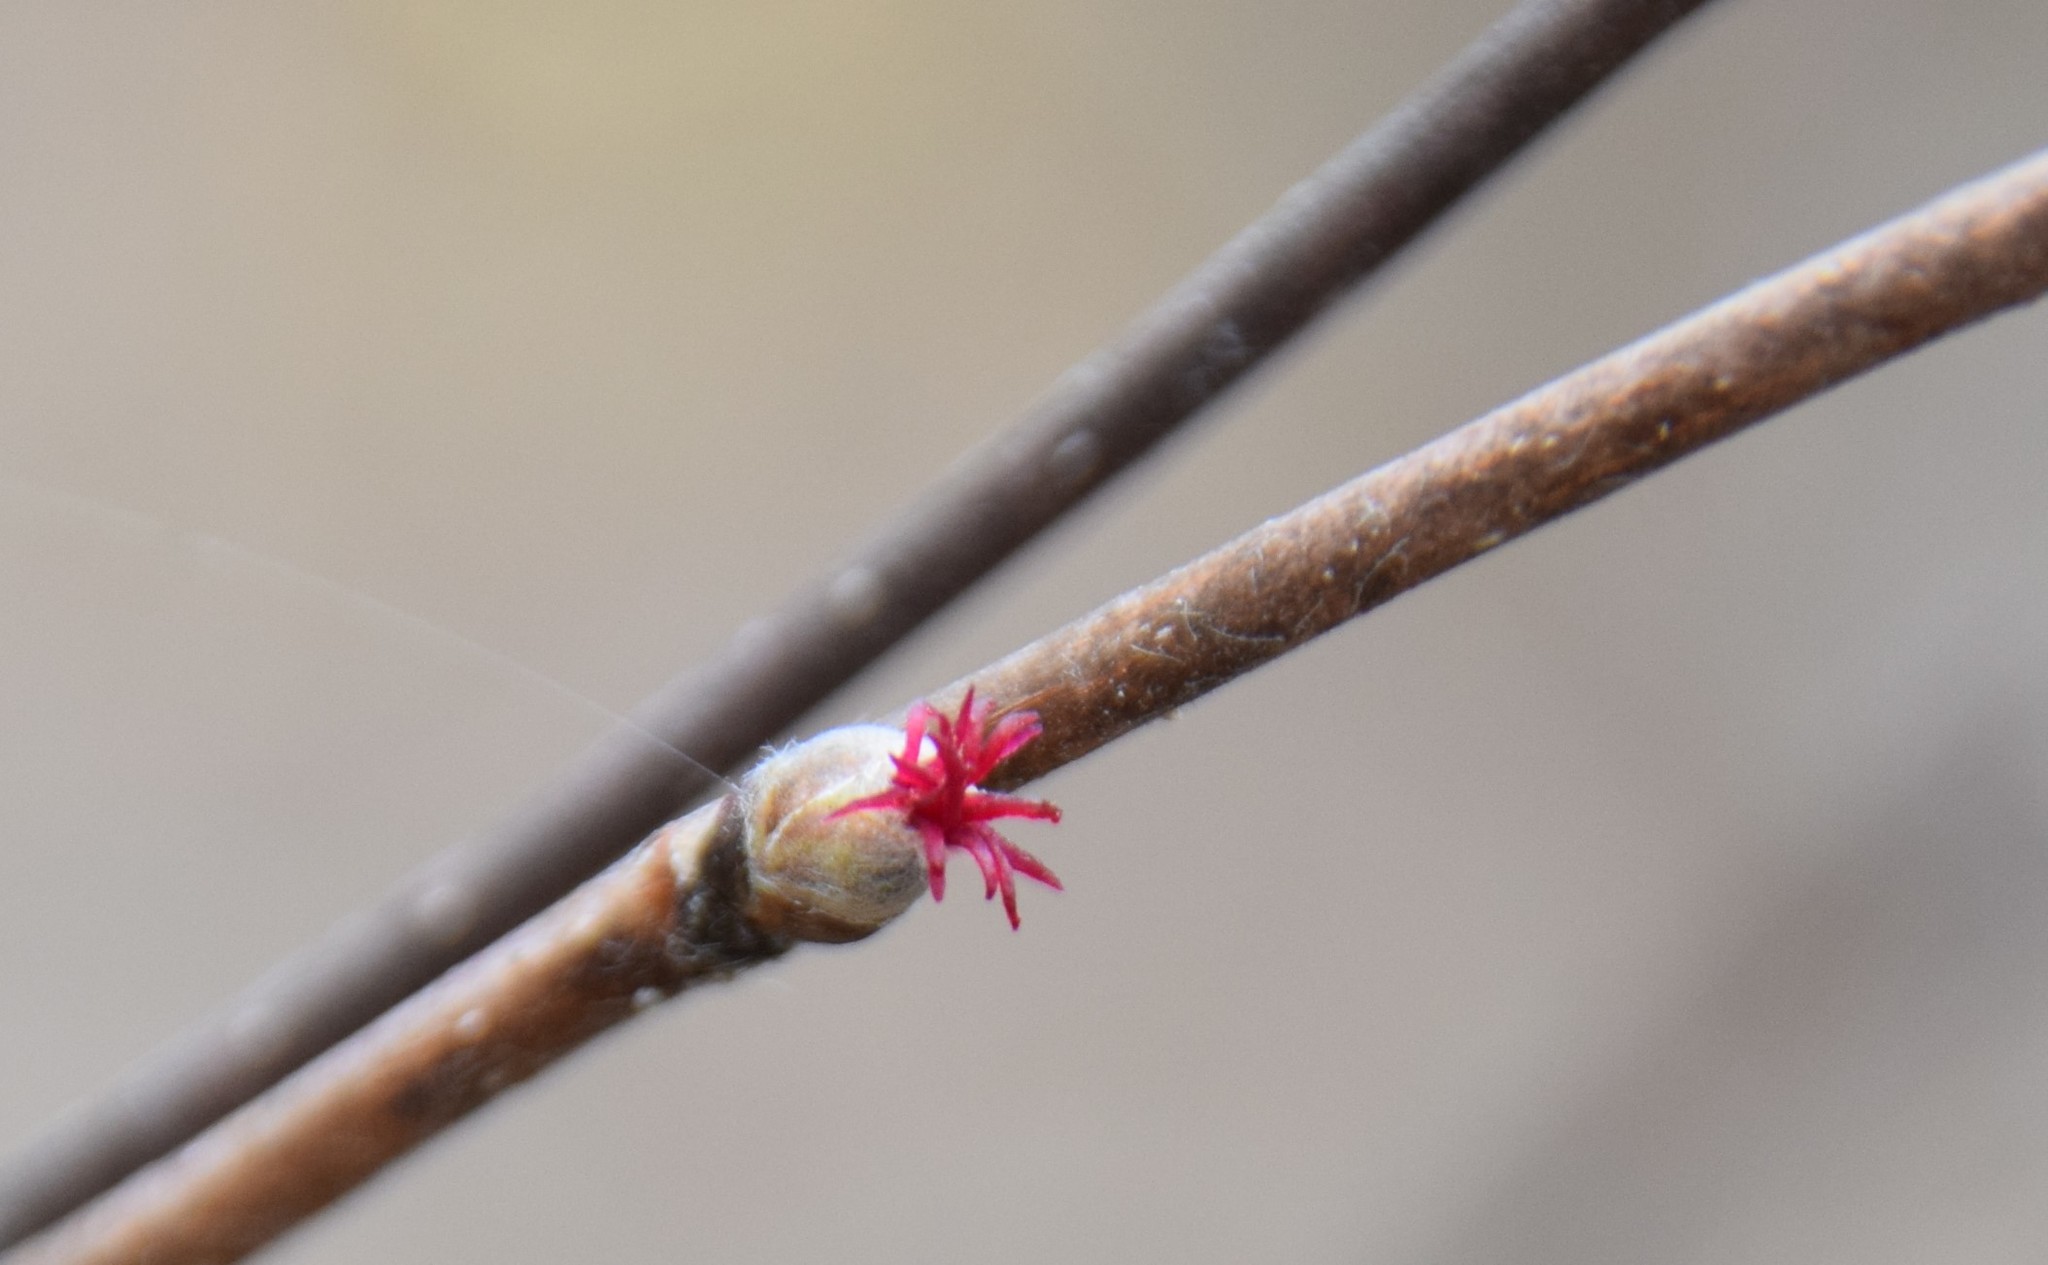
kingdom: Plantae
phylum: Tracheophyta
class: Magnoliopsida
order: Fagales
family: Betulaceae
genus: Corylus
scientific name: Corylus cornuta
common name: Beaked hazel
